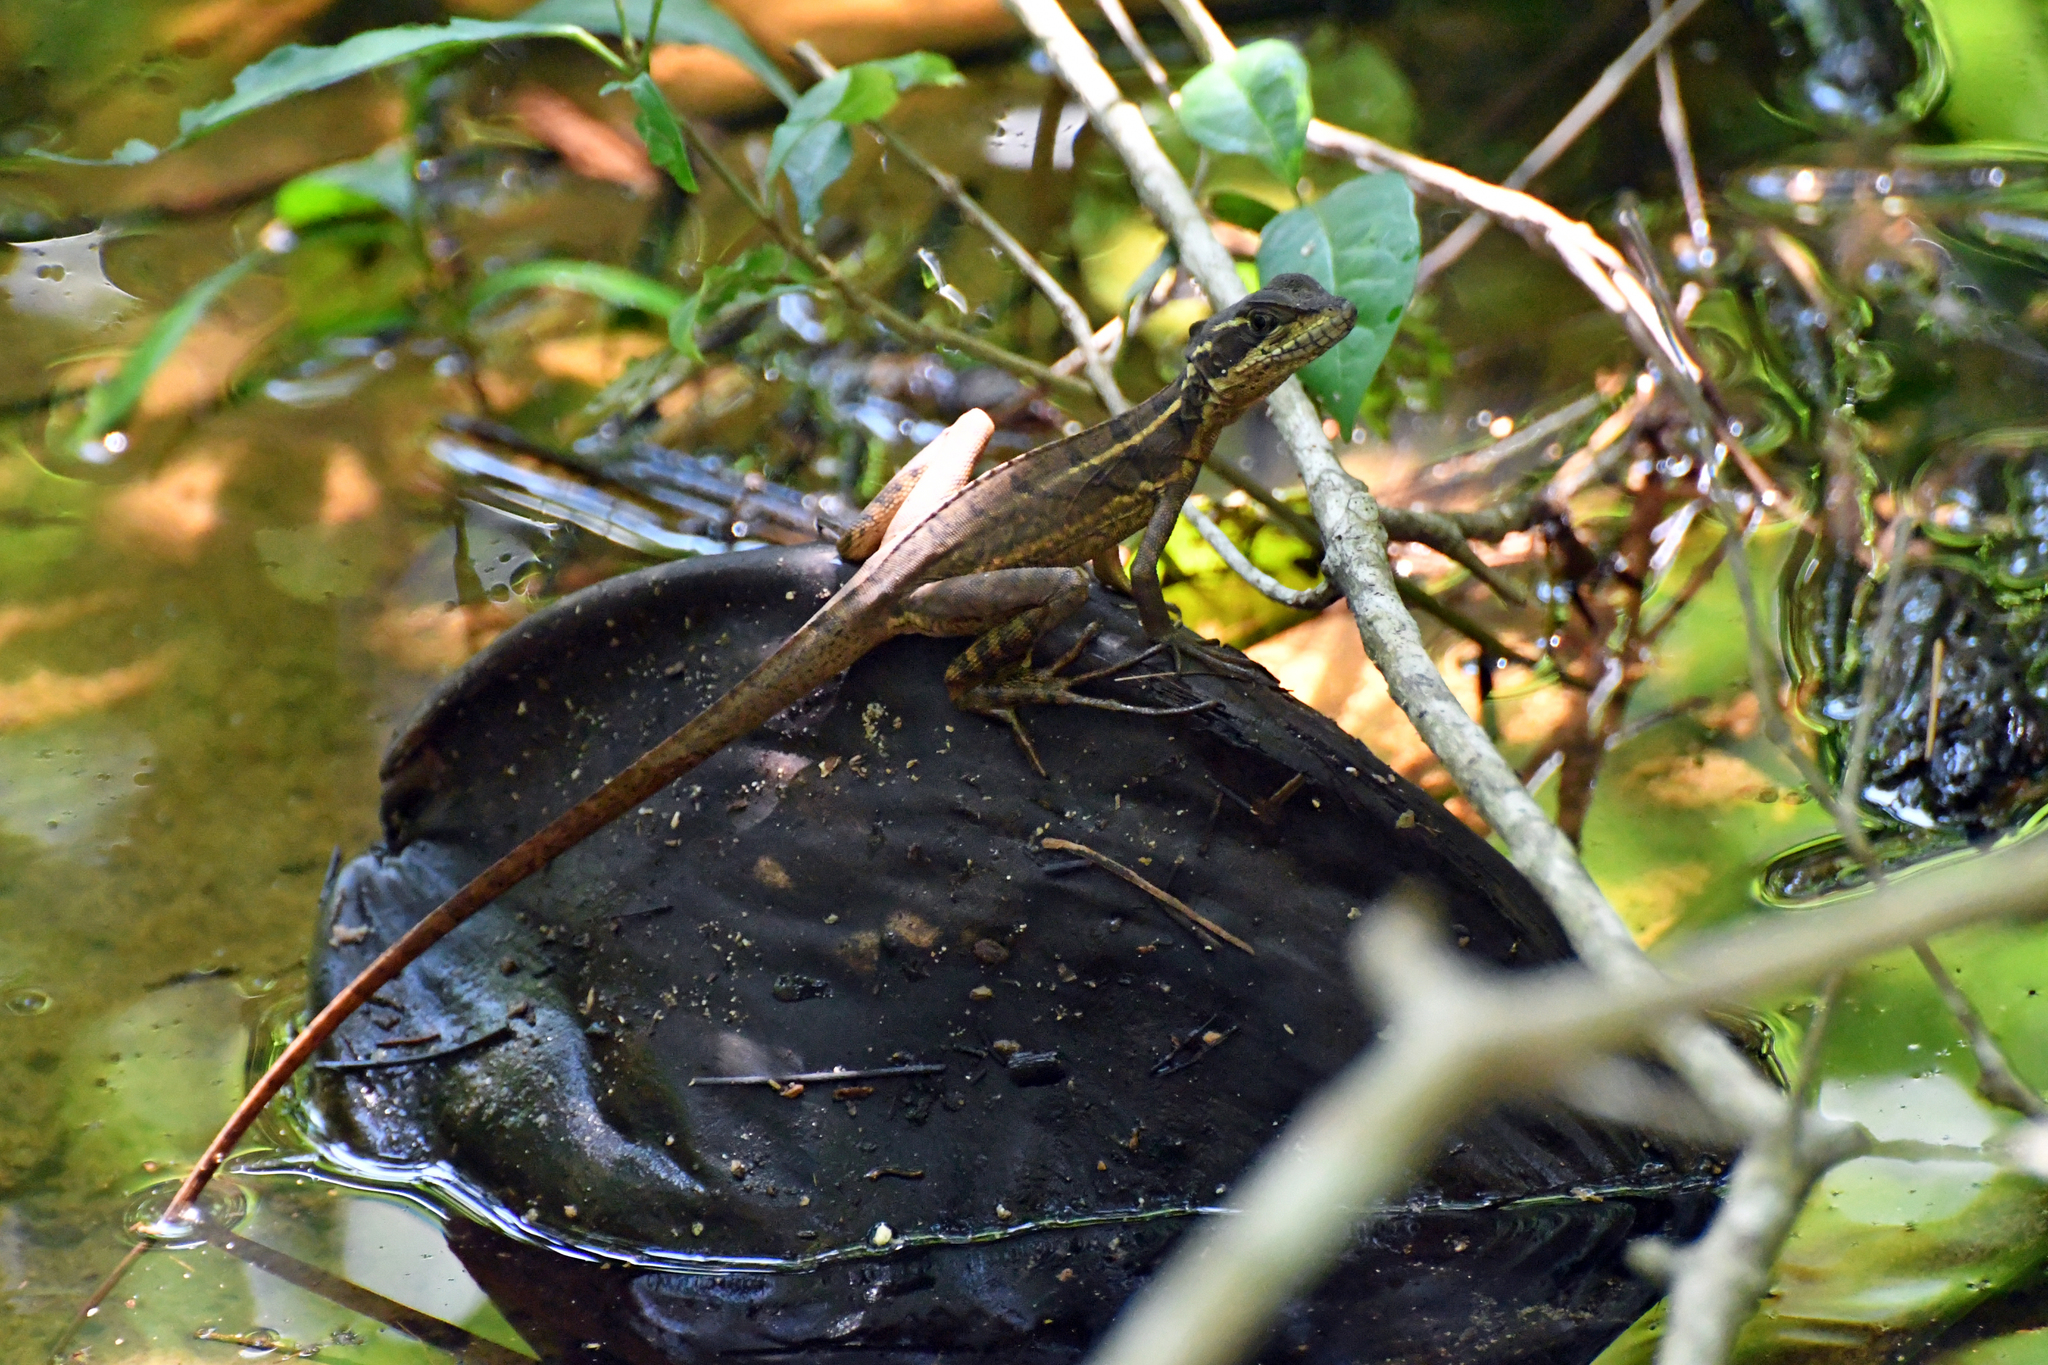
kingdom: Animalia
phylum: Chordata
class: Squamata
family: Corytophanidae
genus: Basiliscus
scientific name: Basiliscus basiliscus
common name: Common basilisk
